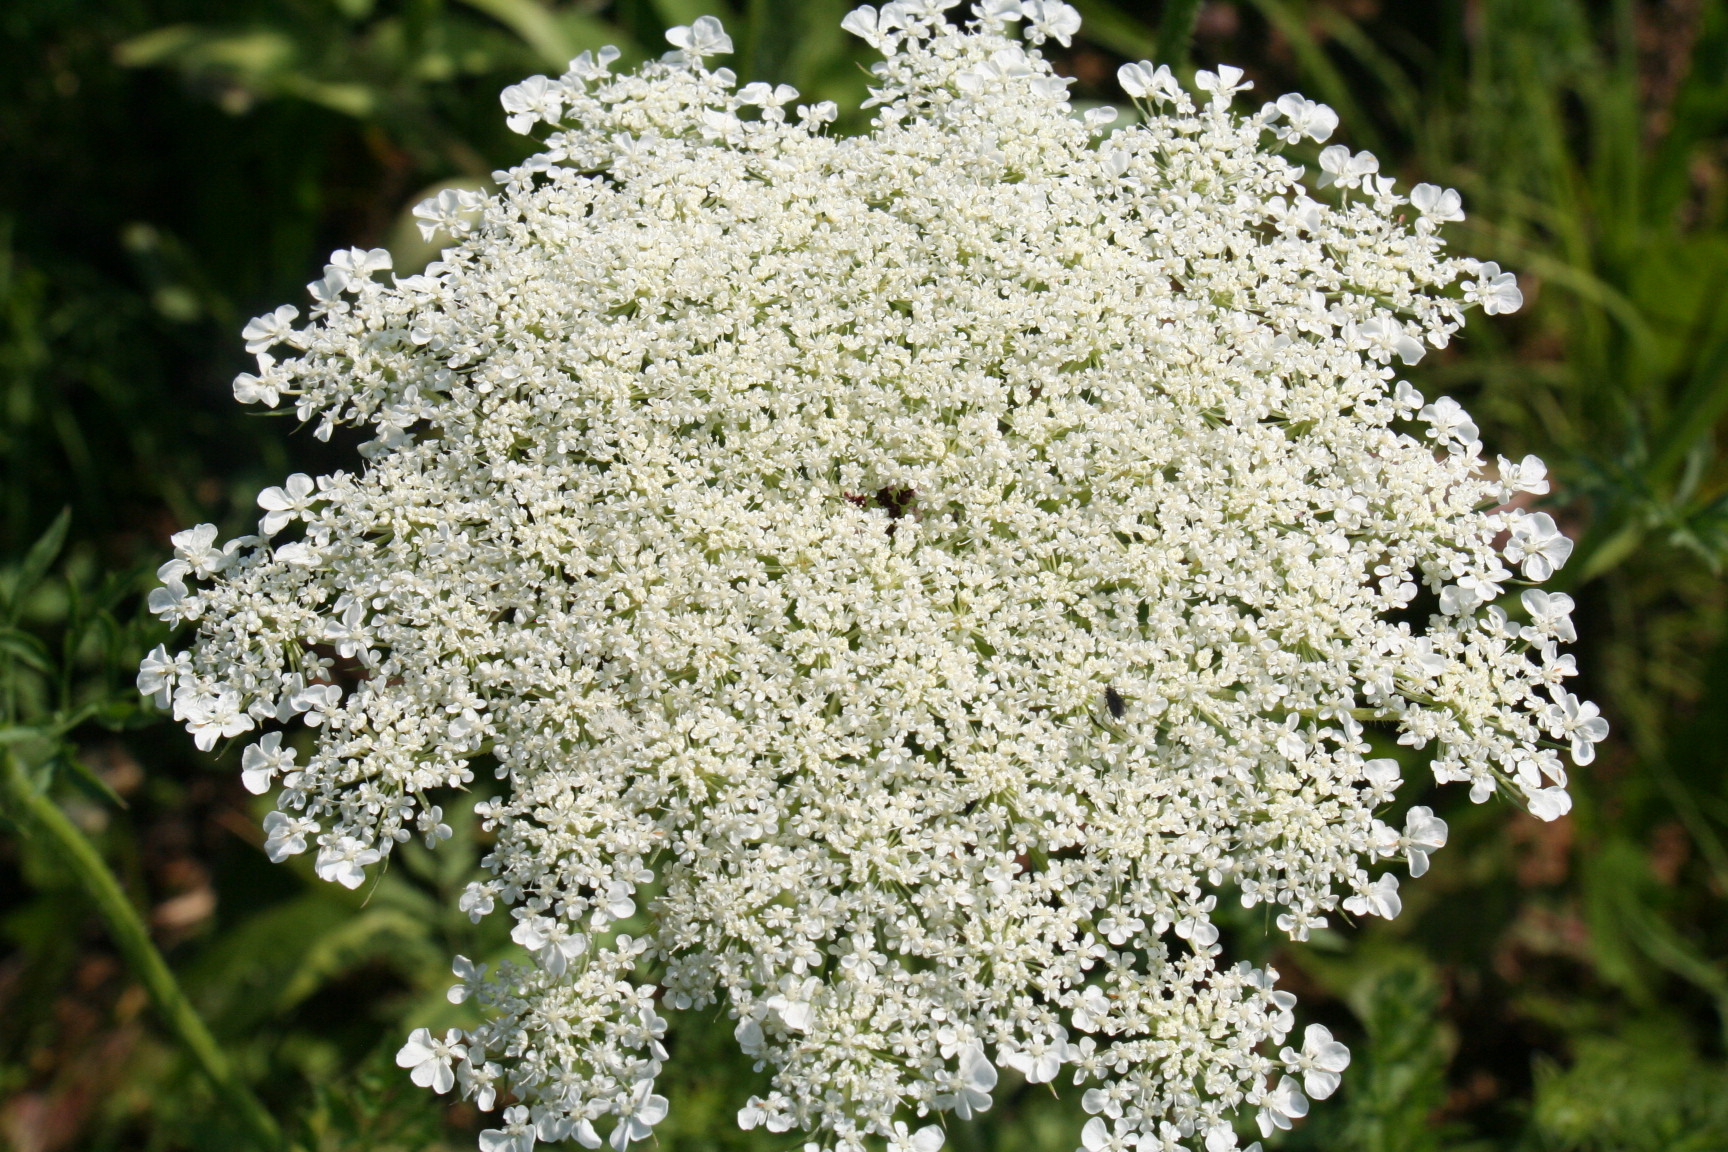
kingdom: Plantae
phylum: Tracheophyta
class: Magnoliopsida
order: Apiales
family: Apiaceae
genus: Daucus
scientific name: Daucus carota
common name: Wild carrot
